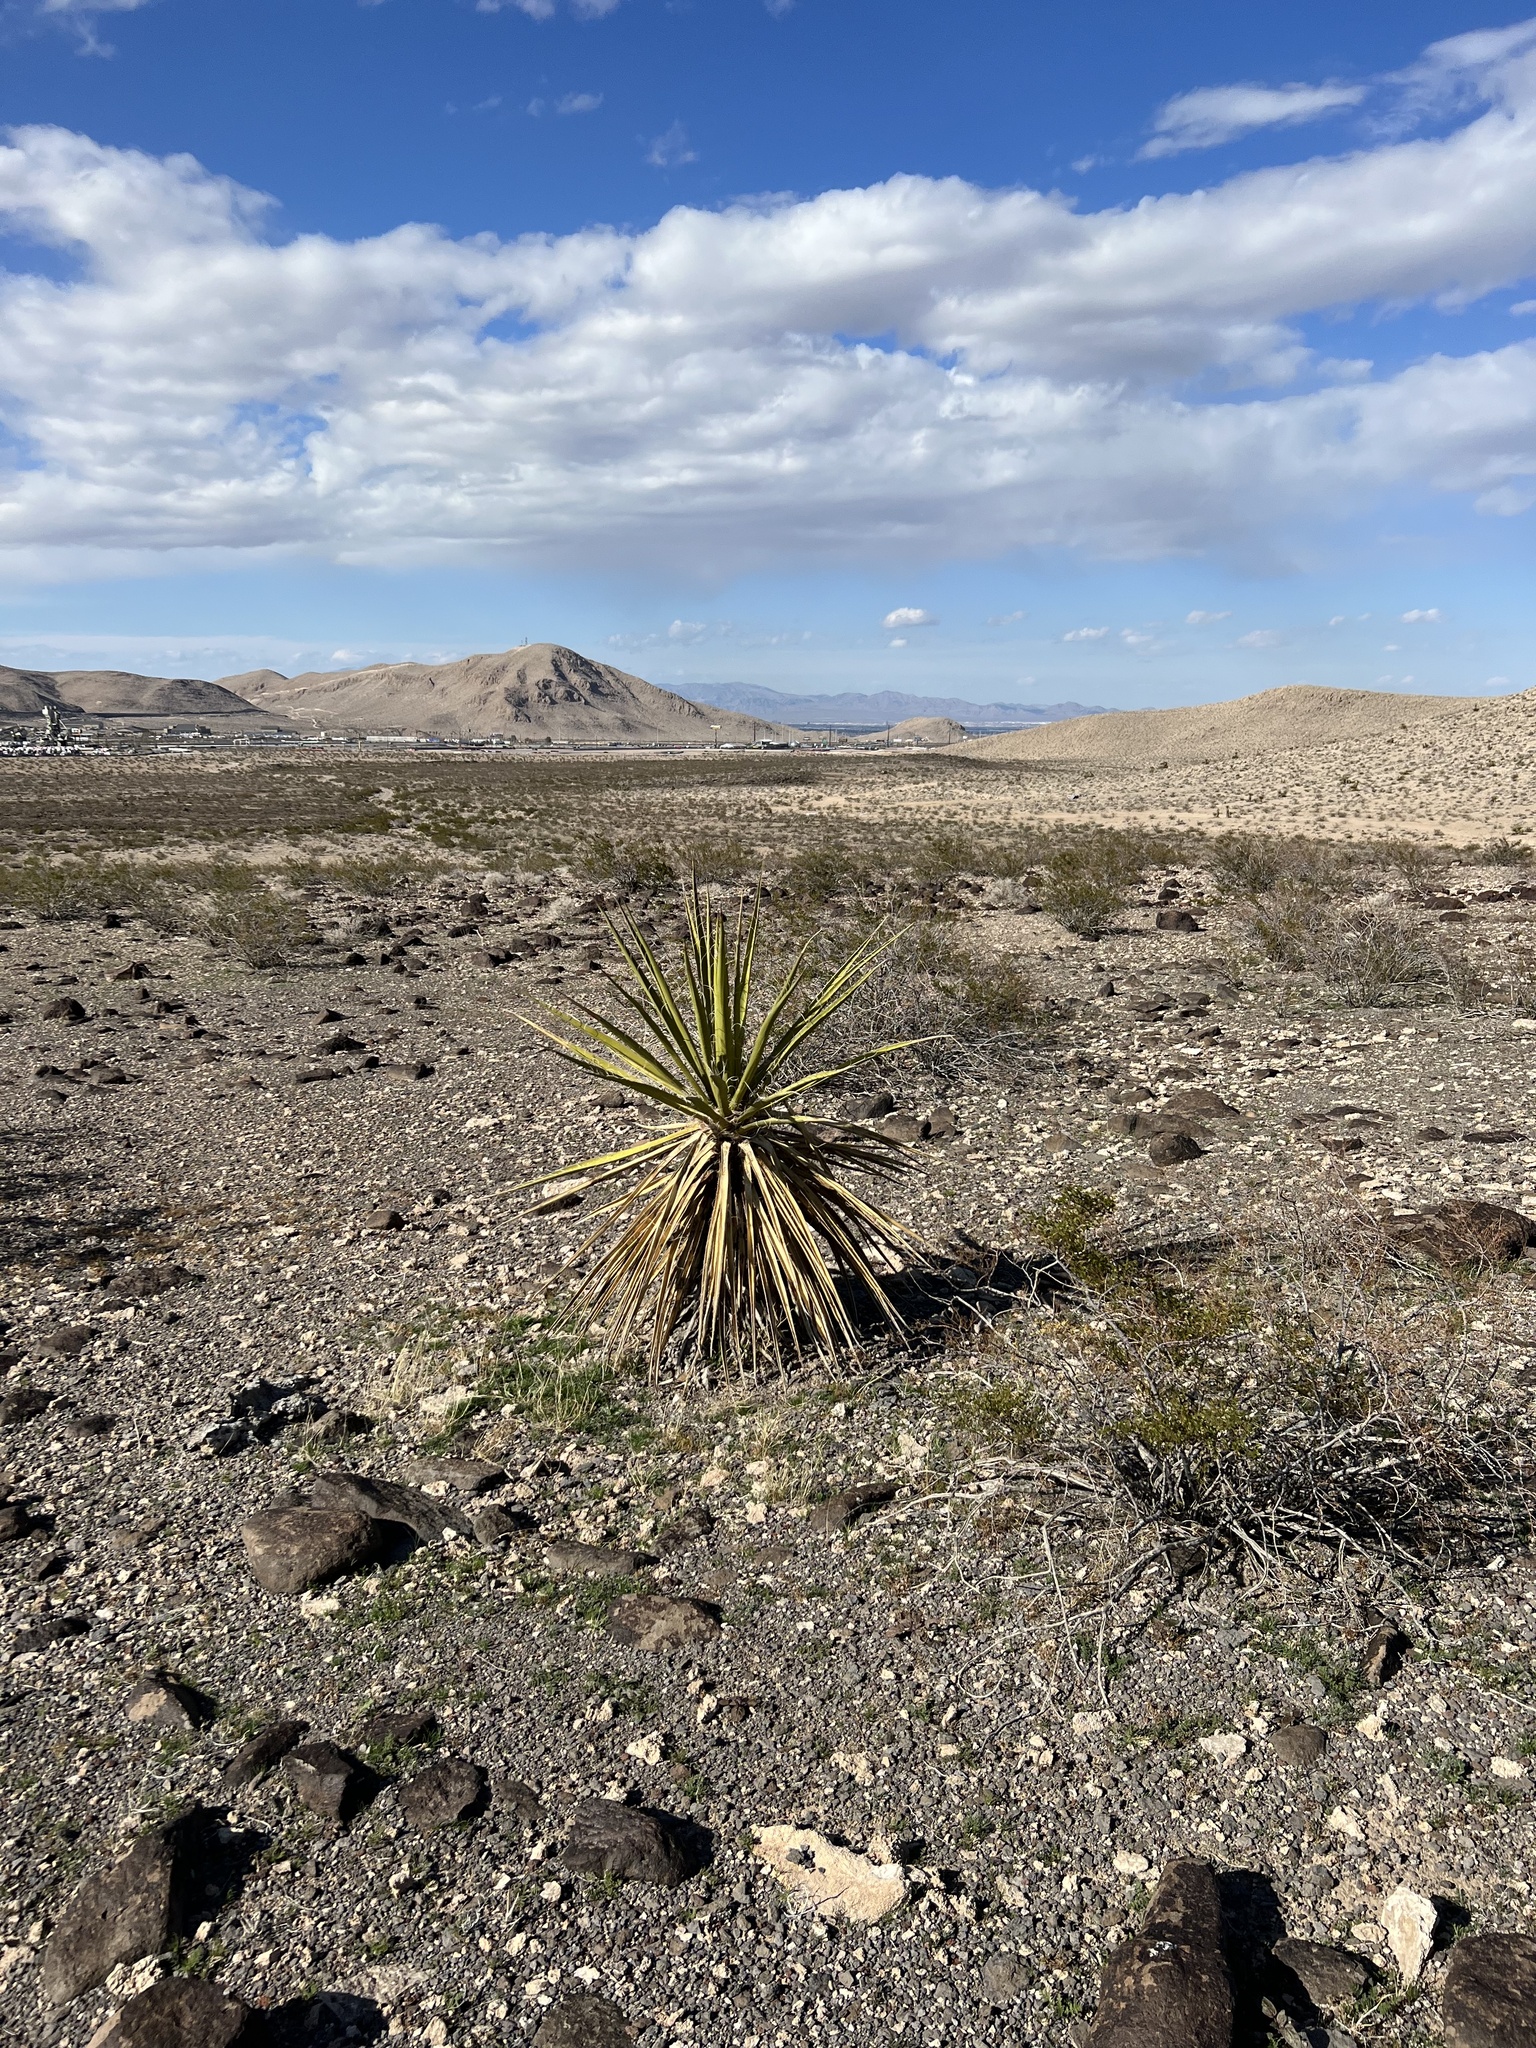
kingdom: Plantae
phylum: Tracheophyta
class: Liliopsida
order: Asparagales
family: Asparagaceae
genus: Yucca
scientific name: Yucca schidigera
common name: Mojave yucca
